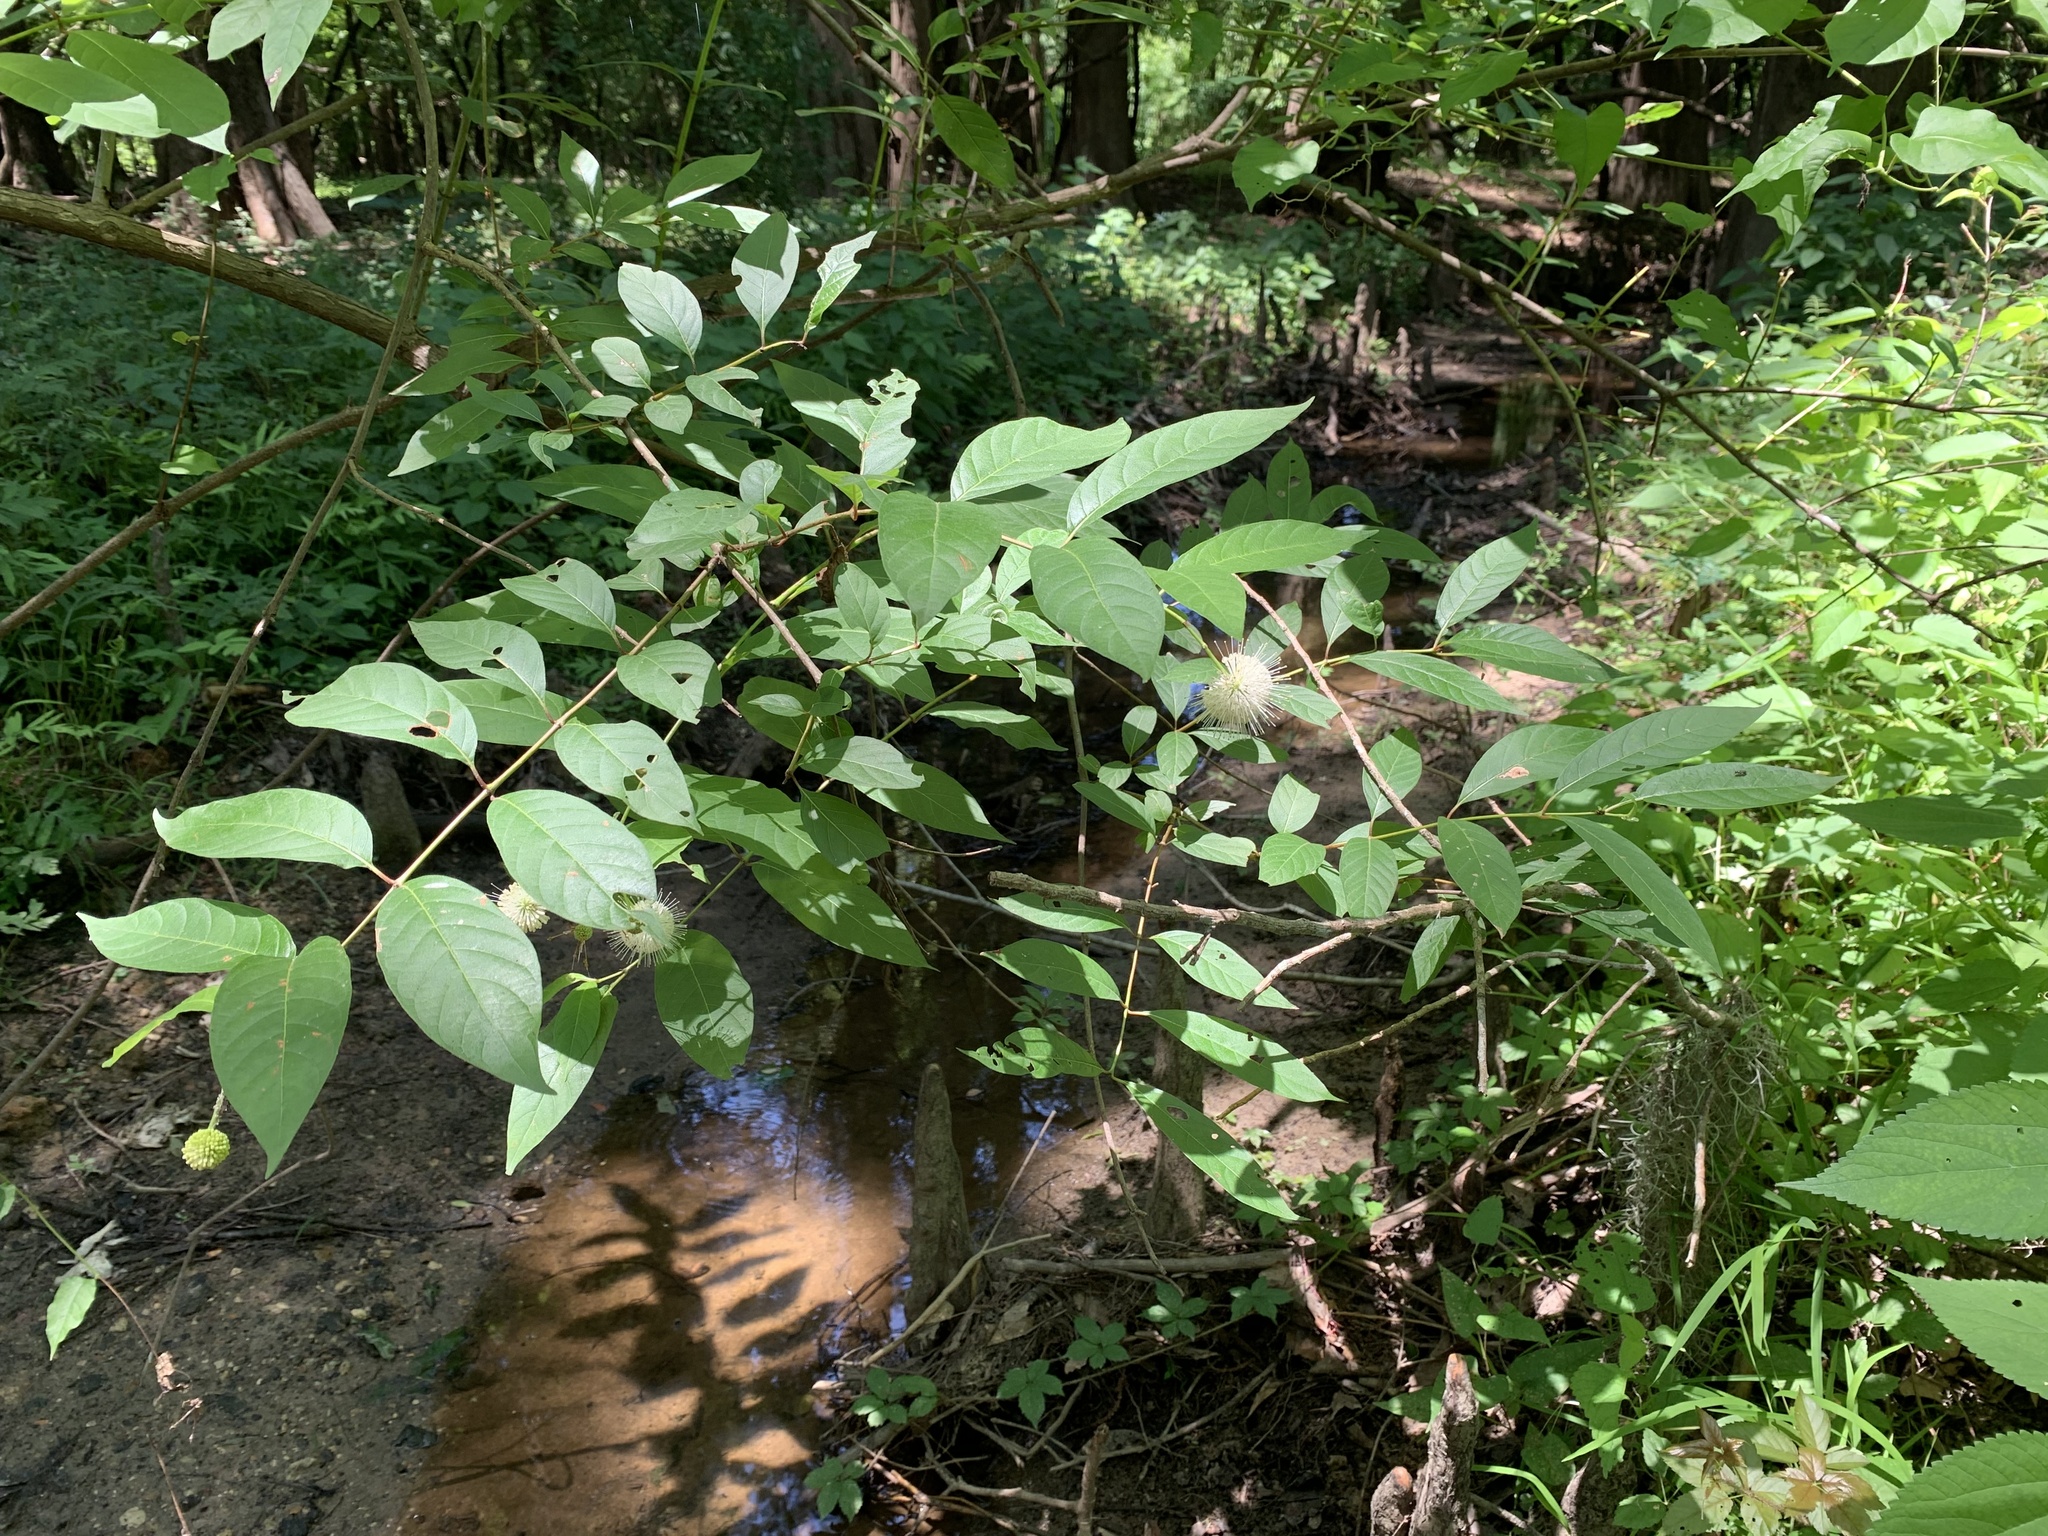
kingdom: Plantae
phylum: Tracheophyta
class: Magnoliopsida
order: Gentianales
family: Rubiaceae
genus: Cephalanthus
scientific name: Cephalanthus occidentalis
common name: Button-willow
